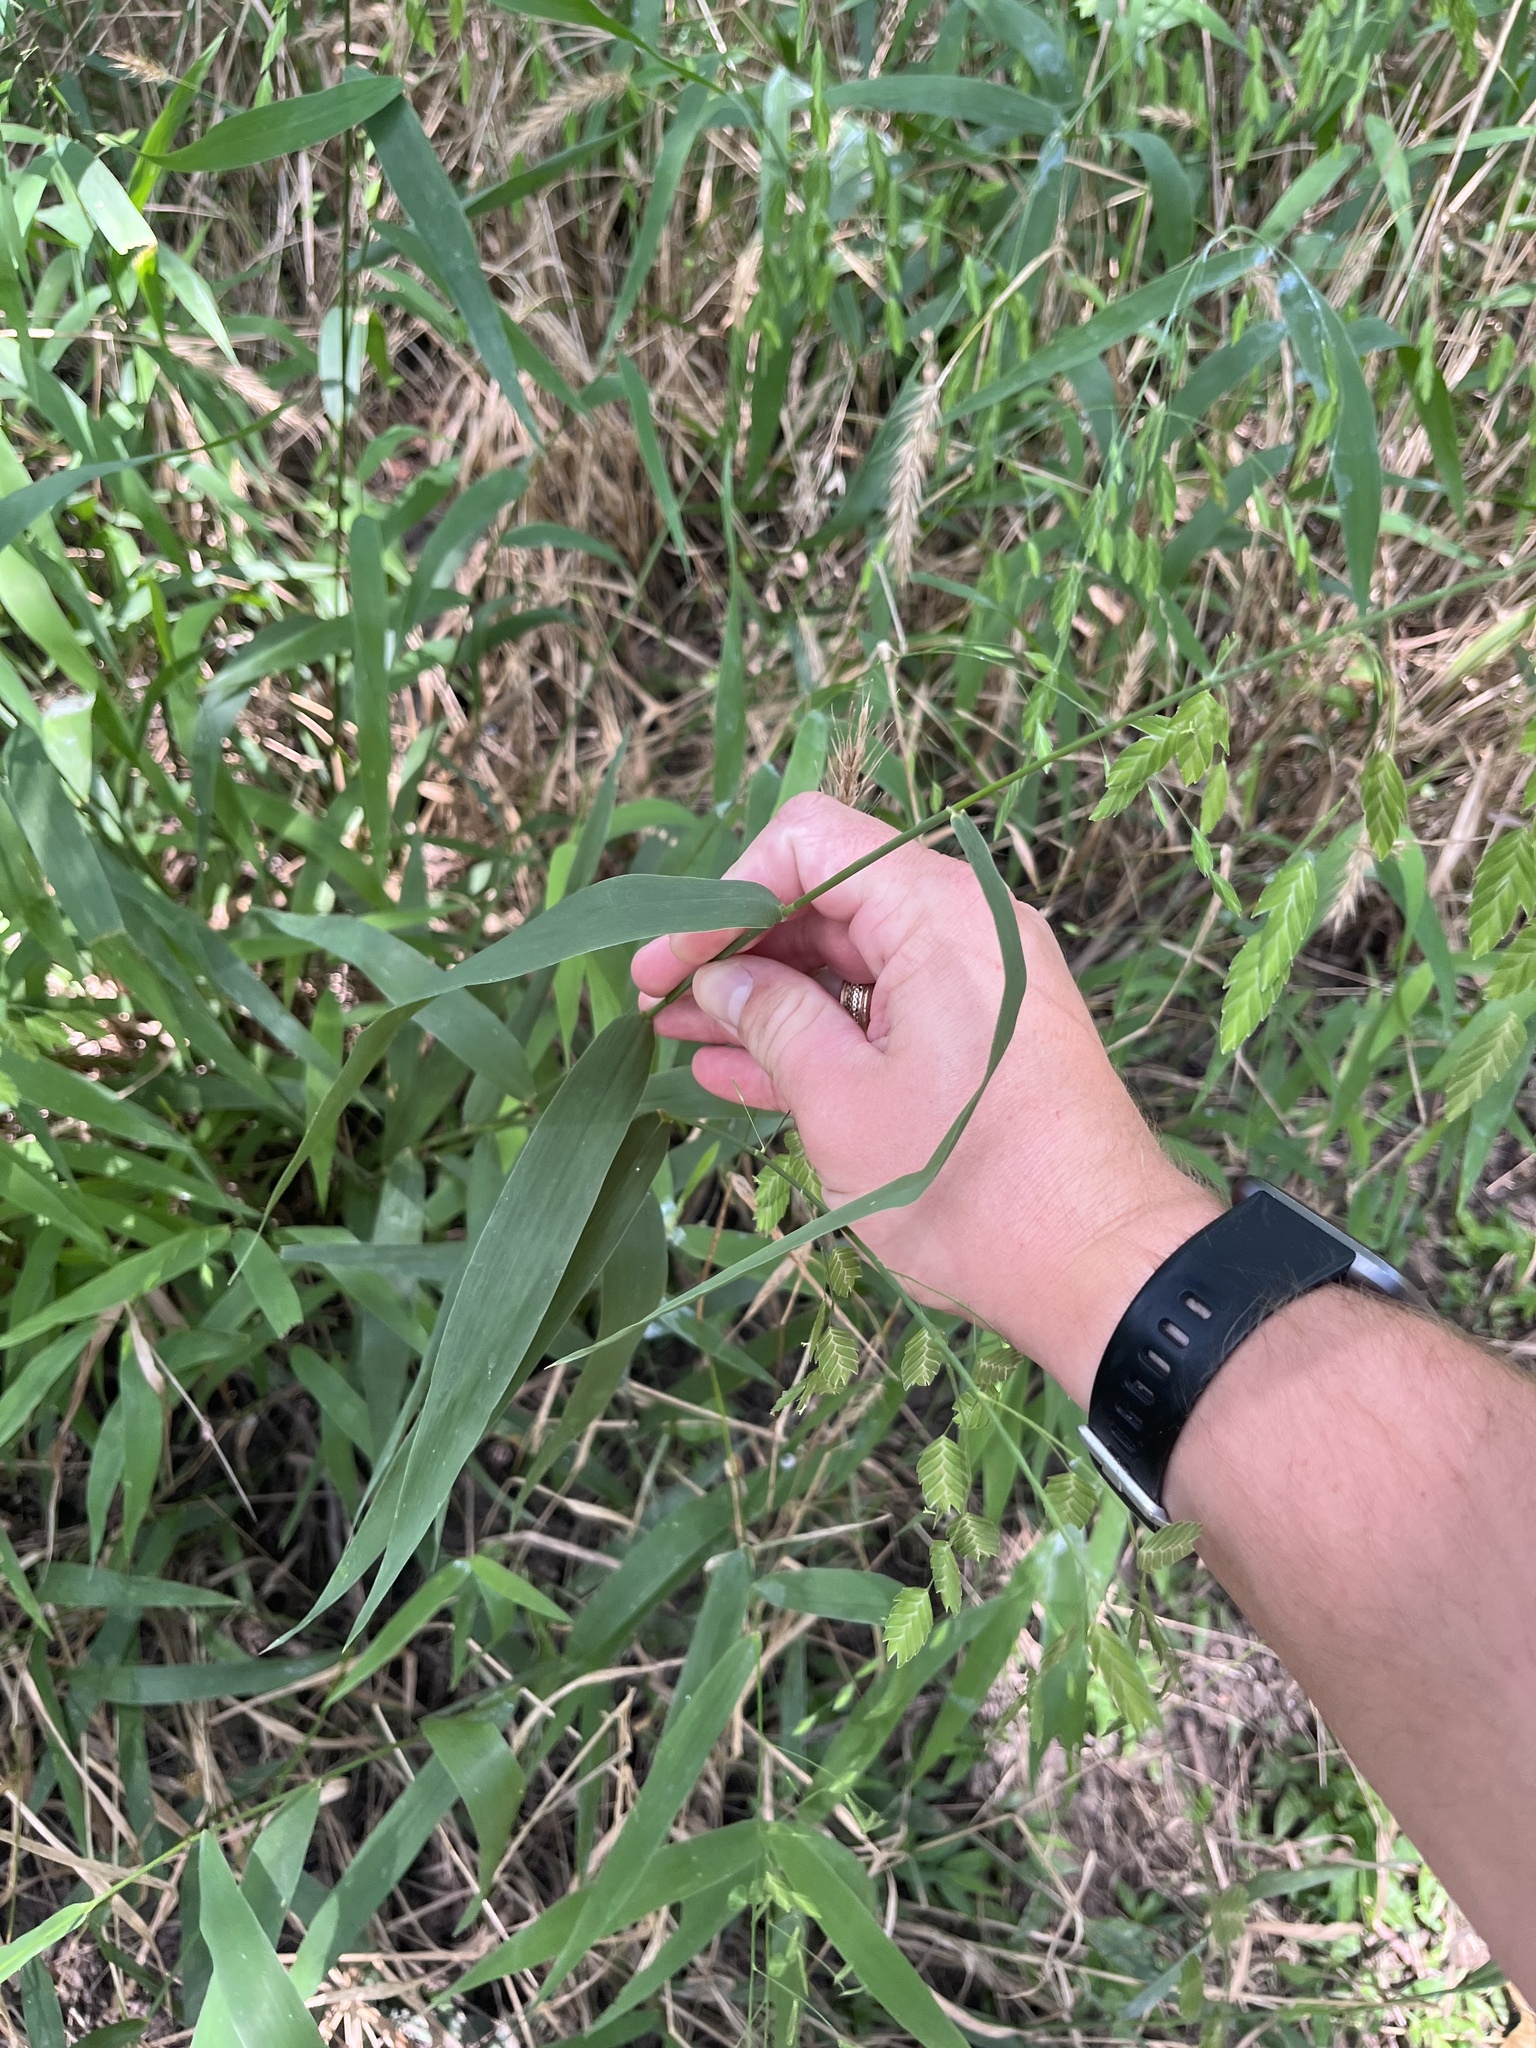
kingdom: Plantae
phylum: Tracheophyta
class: Liliopsida
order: Poales
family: Poaceae
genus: Chasmanthium
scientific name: Chasmanthium latifolium
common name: Broad-leaved chasmanthium
